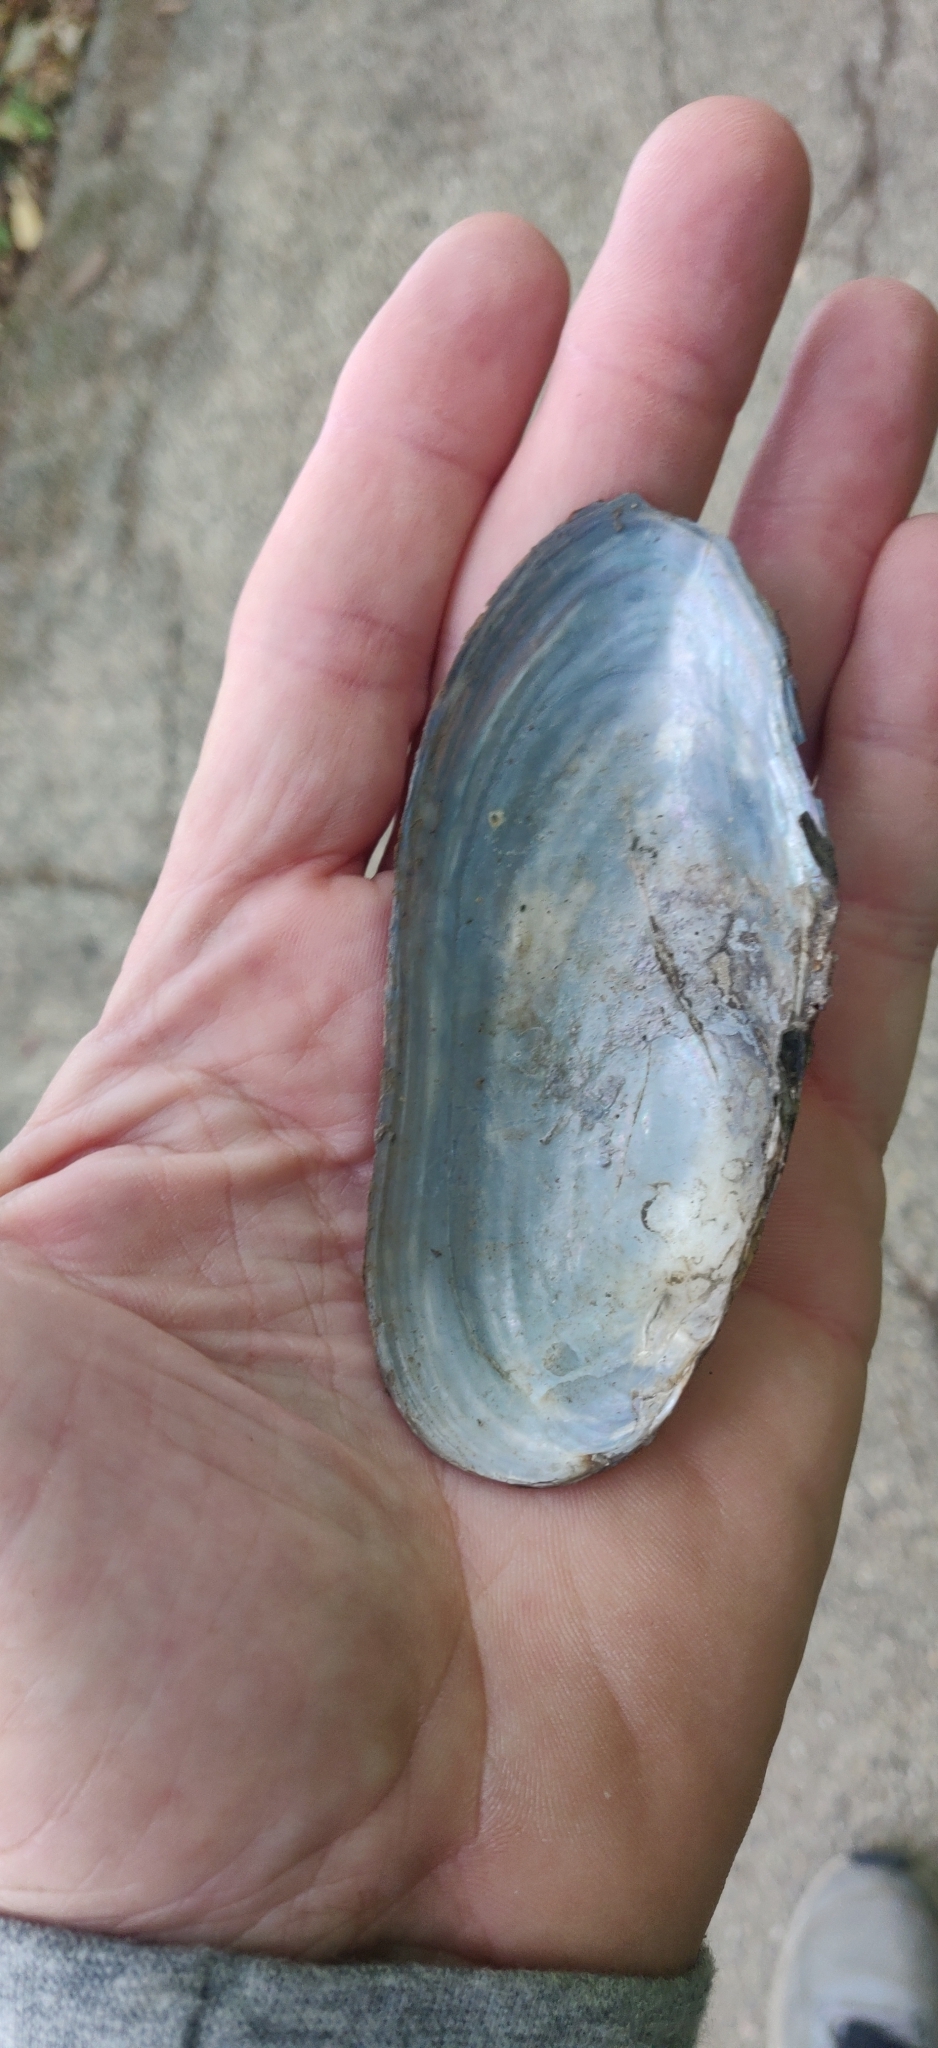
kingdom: Animalia
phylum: Mollusca
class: Bivalvia
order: Unionida
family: Unionidae
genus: Utterbackia
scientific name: Utterbackia imbecillis
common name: Paper pondshell
